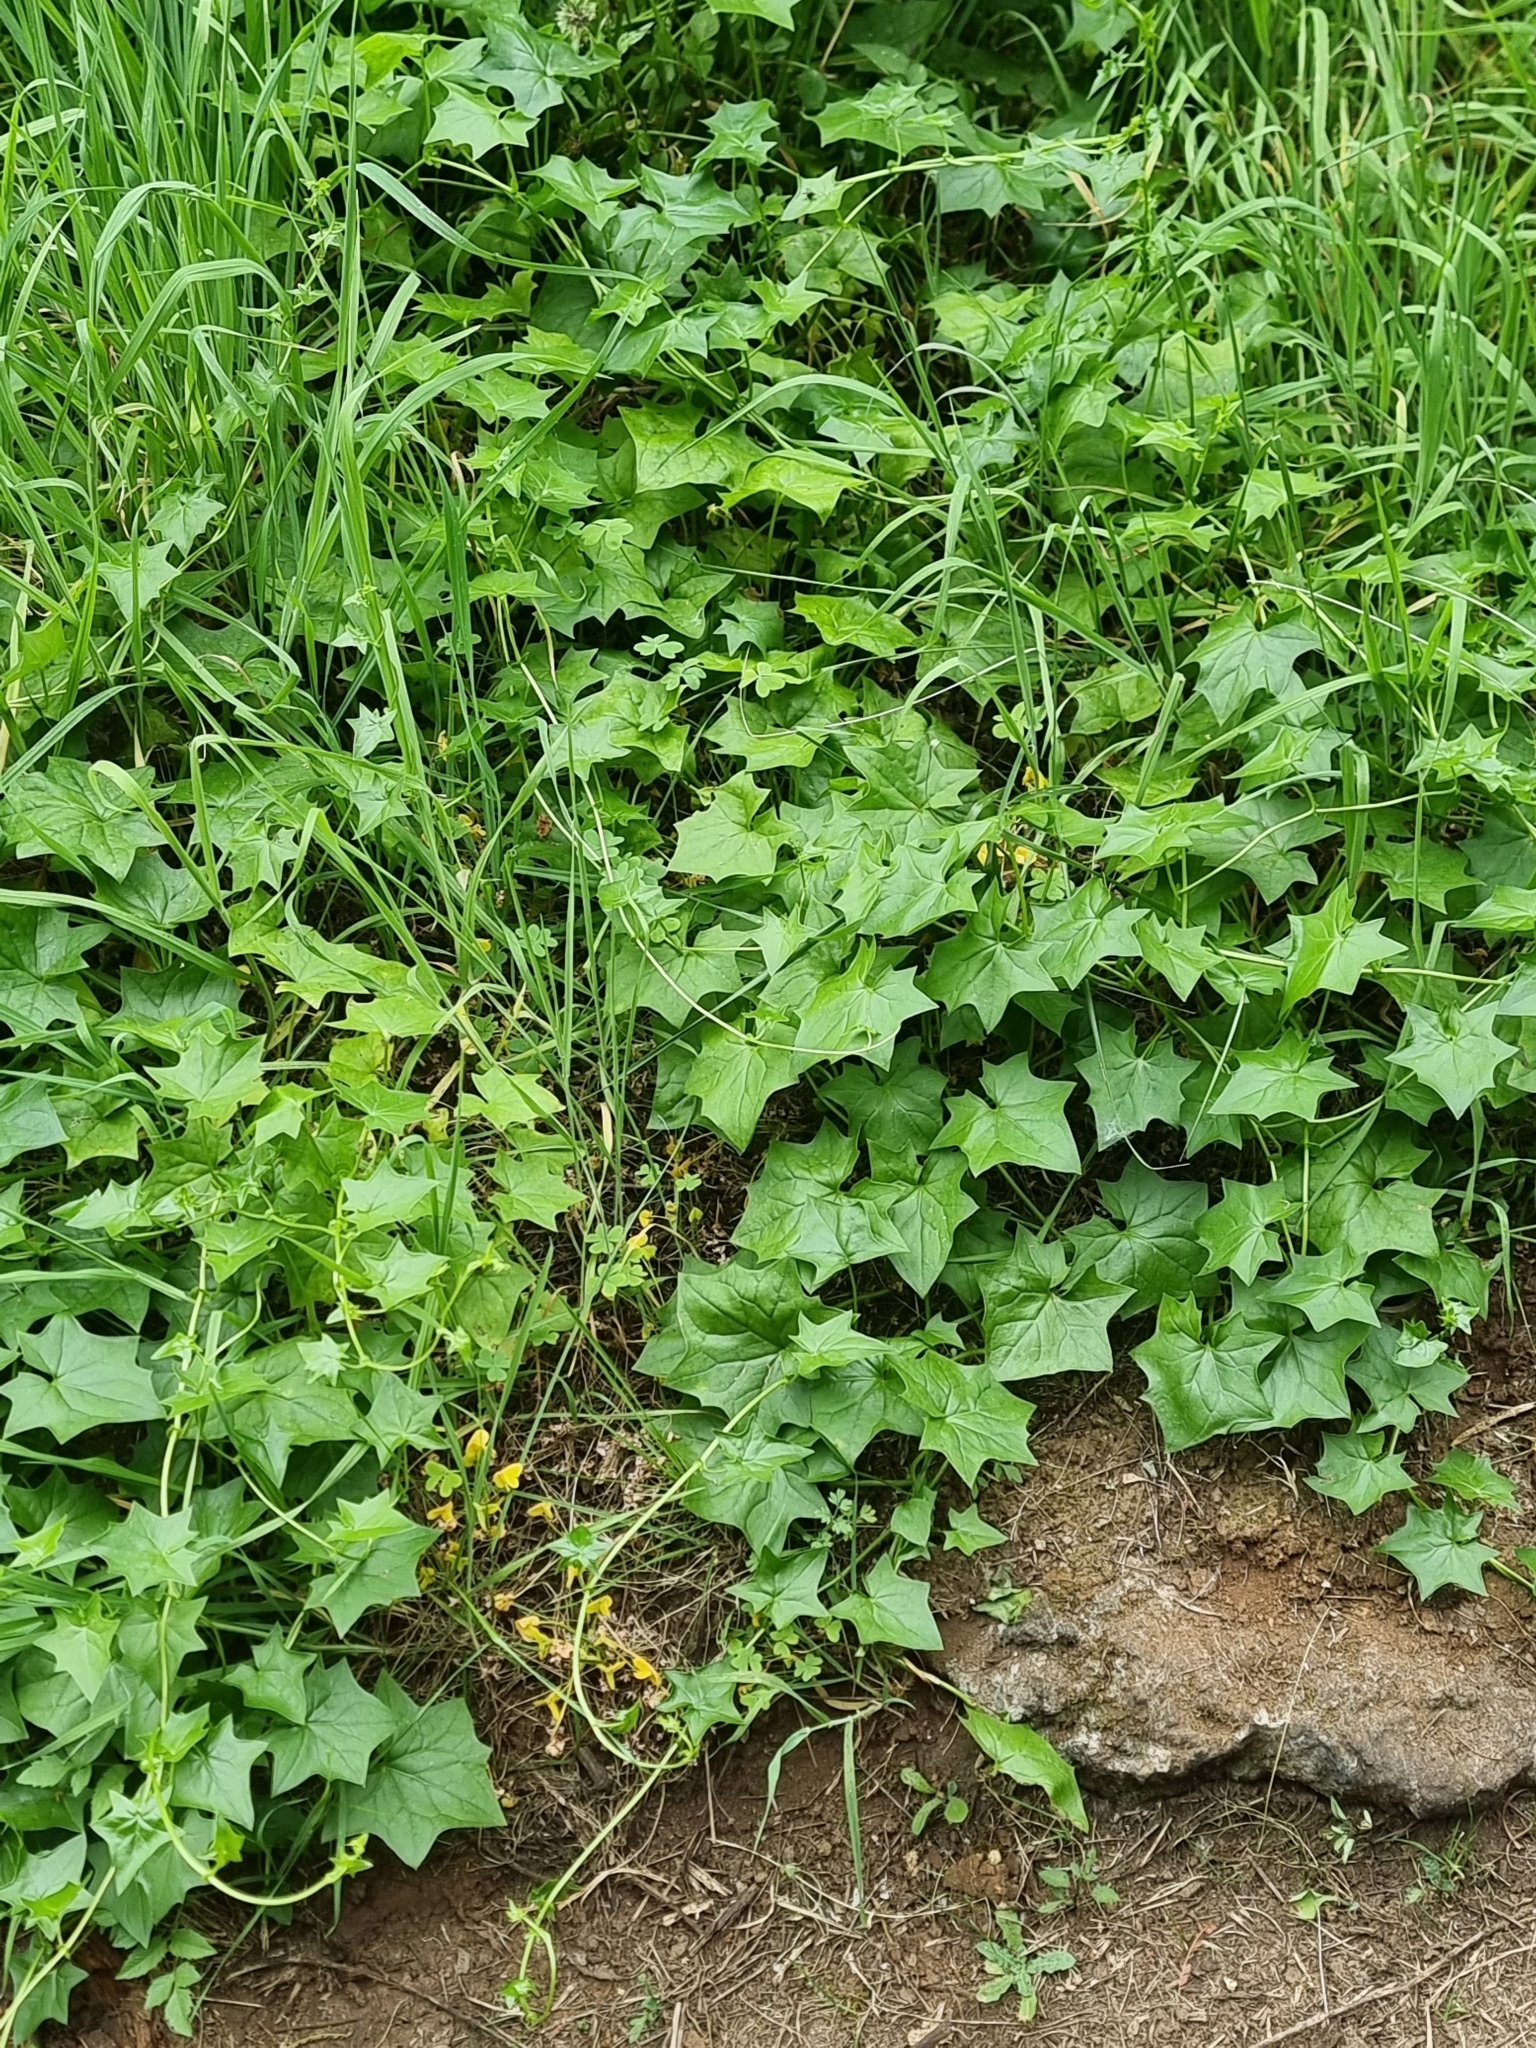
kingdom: Plantae
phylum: Tracheophyta
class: Magnoliopsida
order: Asterales
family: Asteraceae
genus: Delairea
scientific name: Delairea odorata
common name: Cape-ivy
